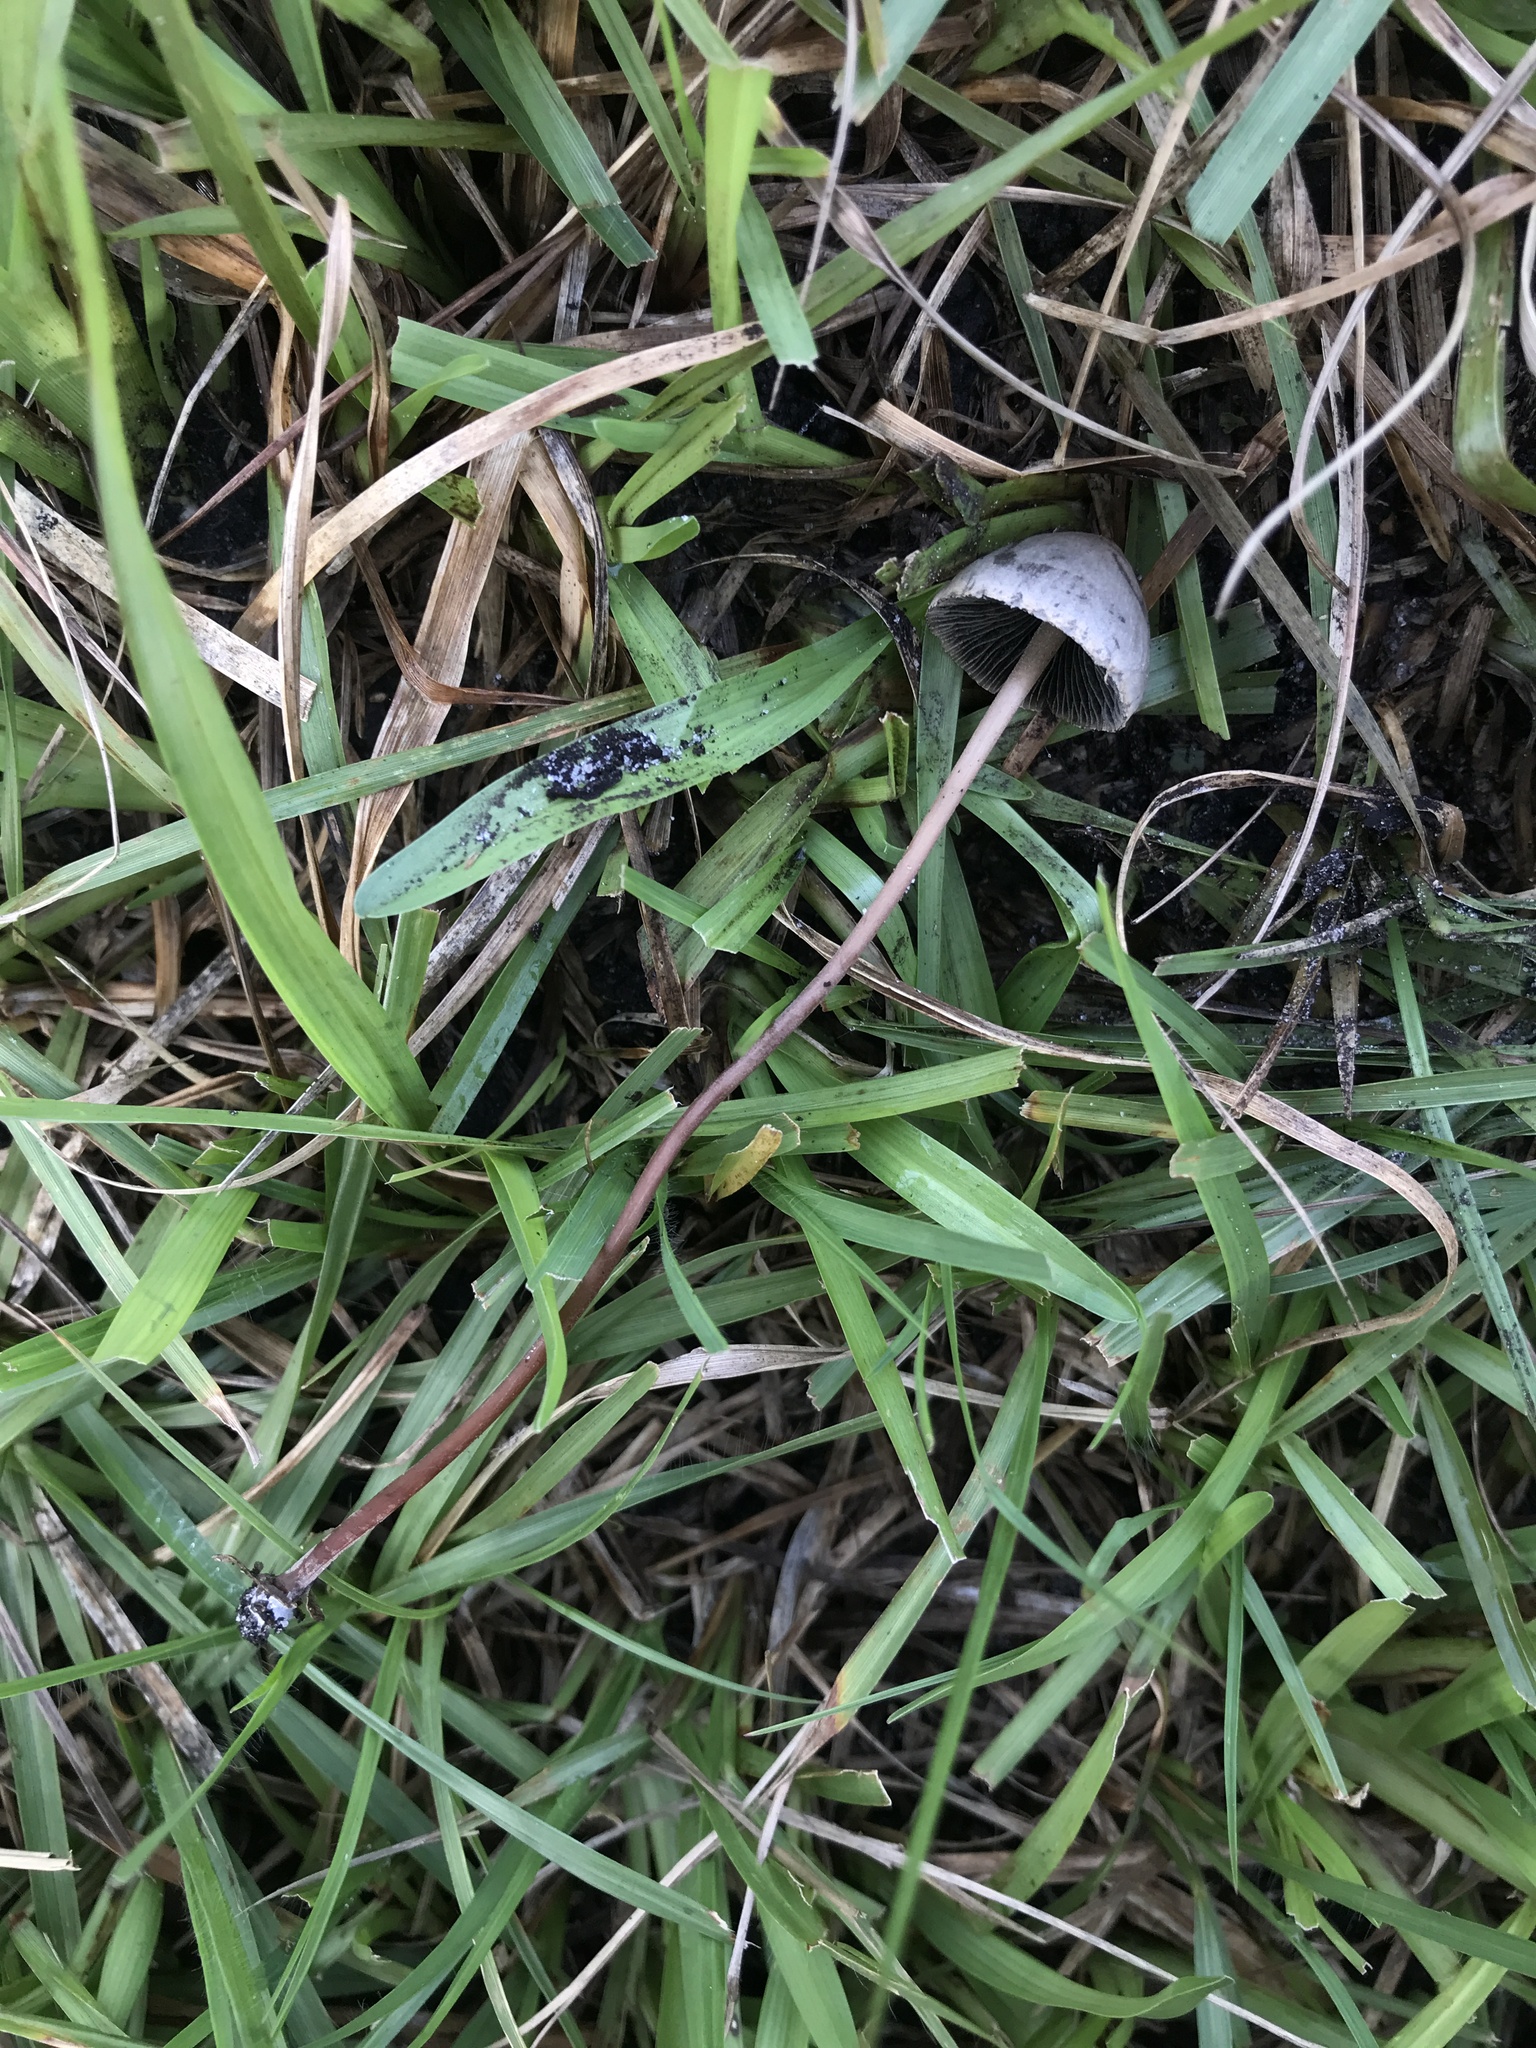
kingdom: Fungi
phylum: Basidiomycota
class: Agaricomycetes
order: Agaricales
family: Bolbitiaceae
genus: Panaeolus
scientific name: Panaeolus papilionaceus
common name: Petticoat mottlegill
